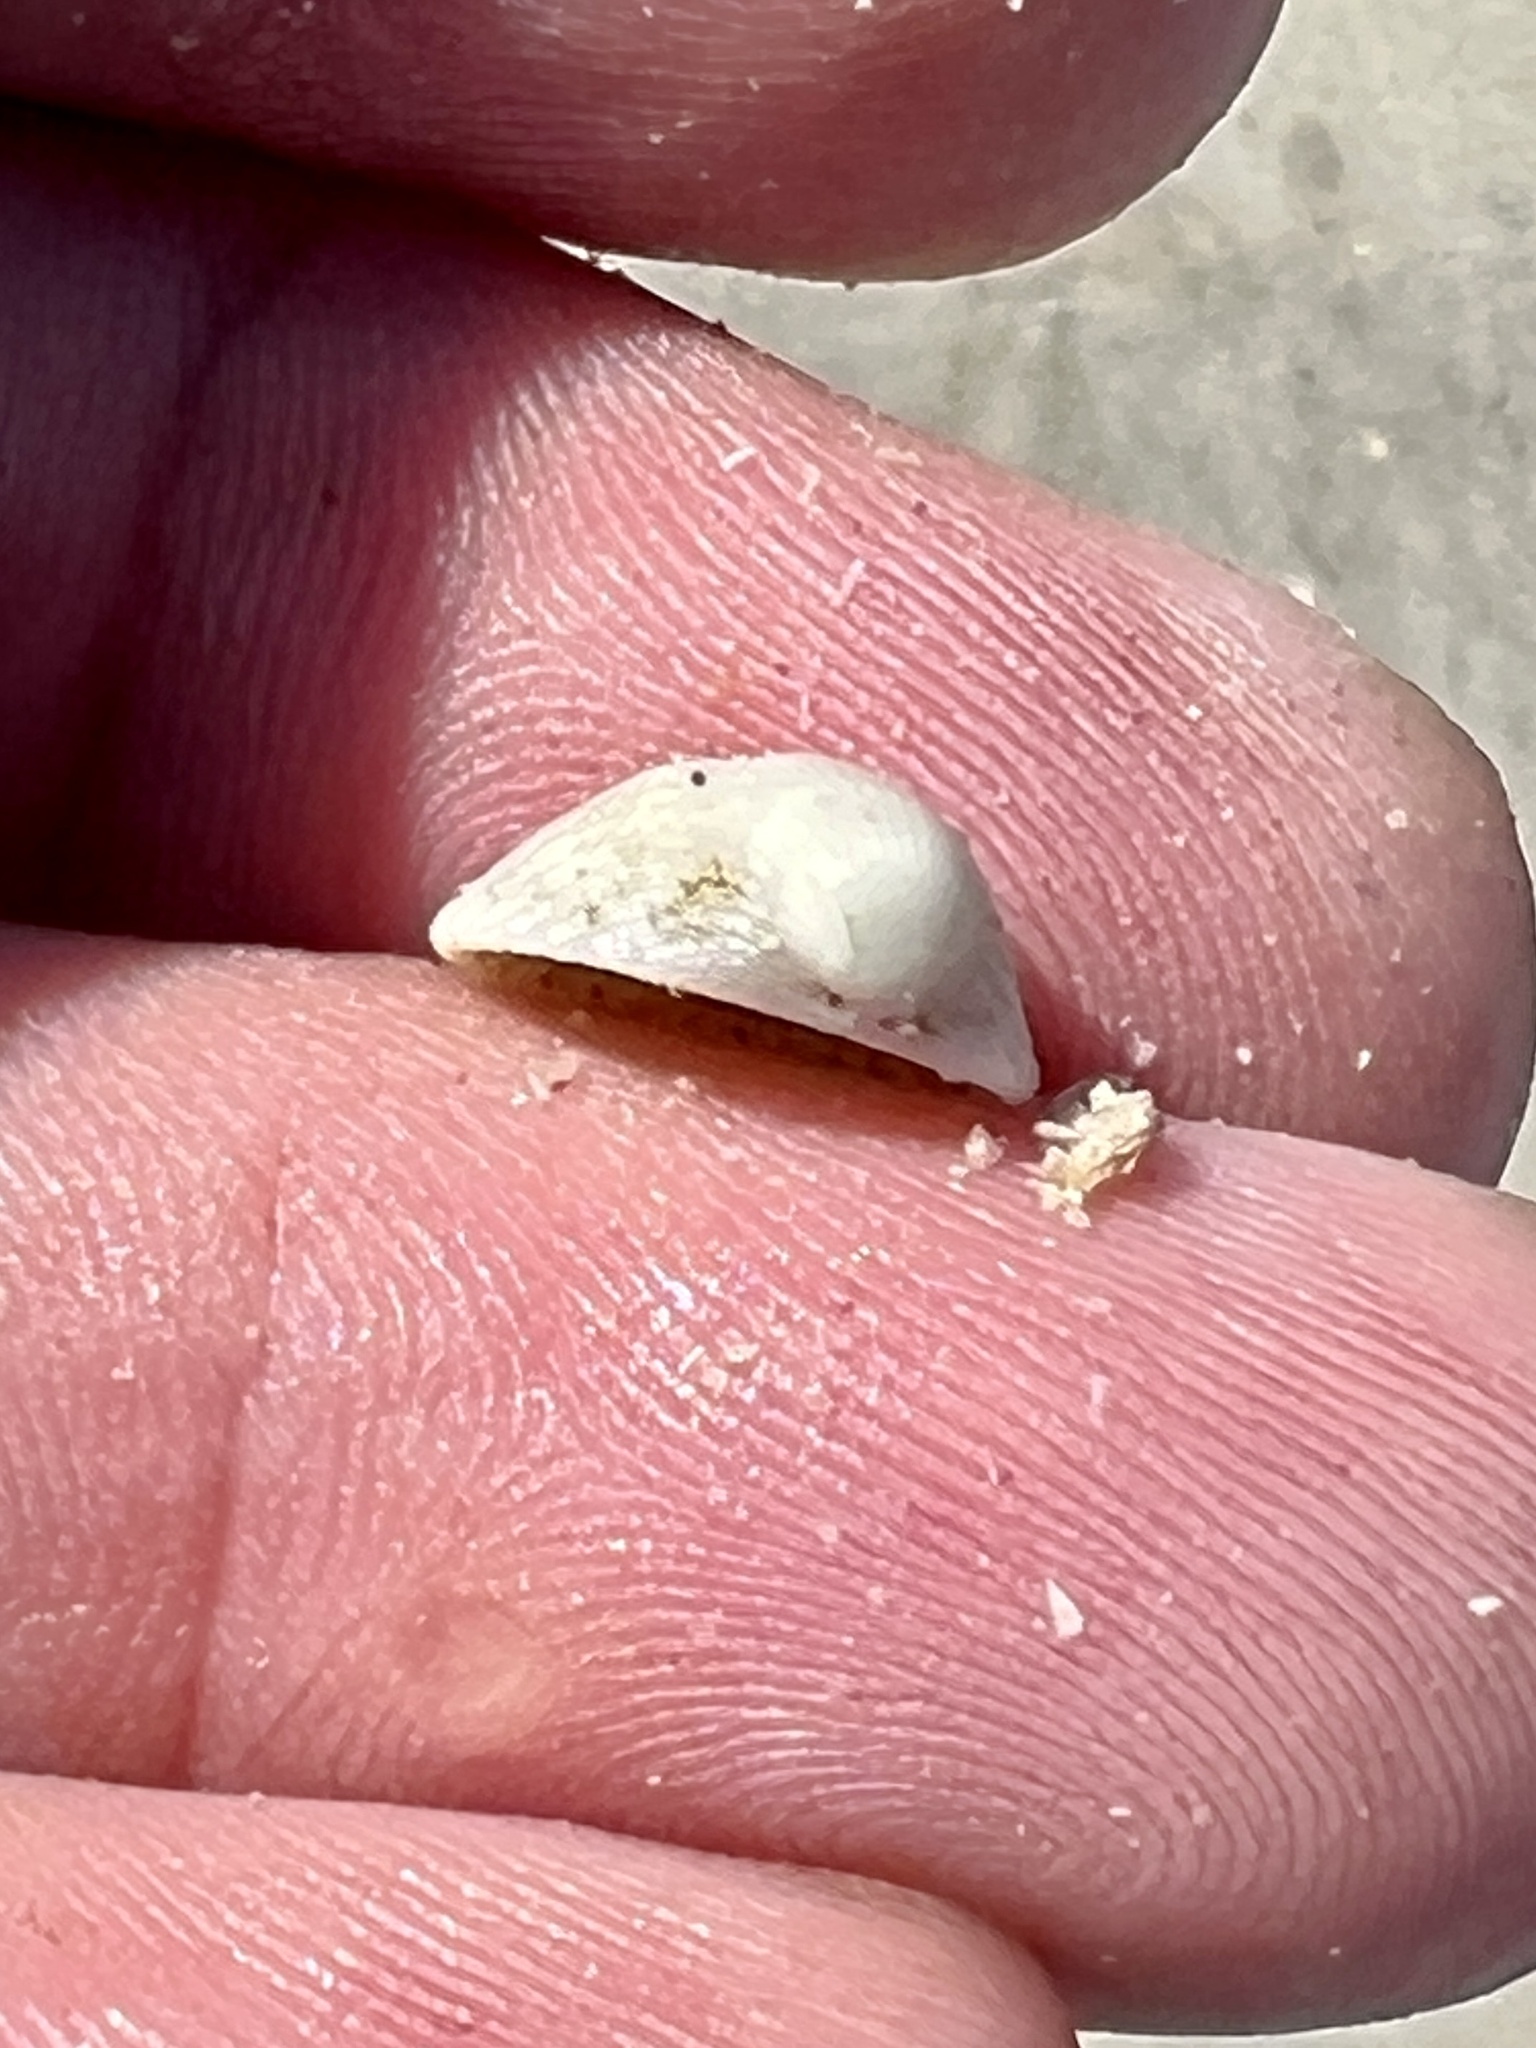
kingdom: Animalia
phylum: Mollusca
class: Bivalvia
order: Arcida
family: Arcidae
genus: Anadara
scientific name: Anadara chemnitzii
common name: Chemnitz's triangular ark
